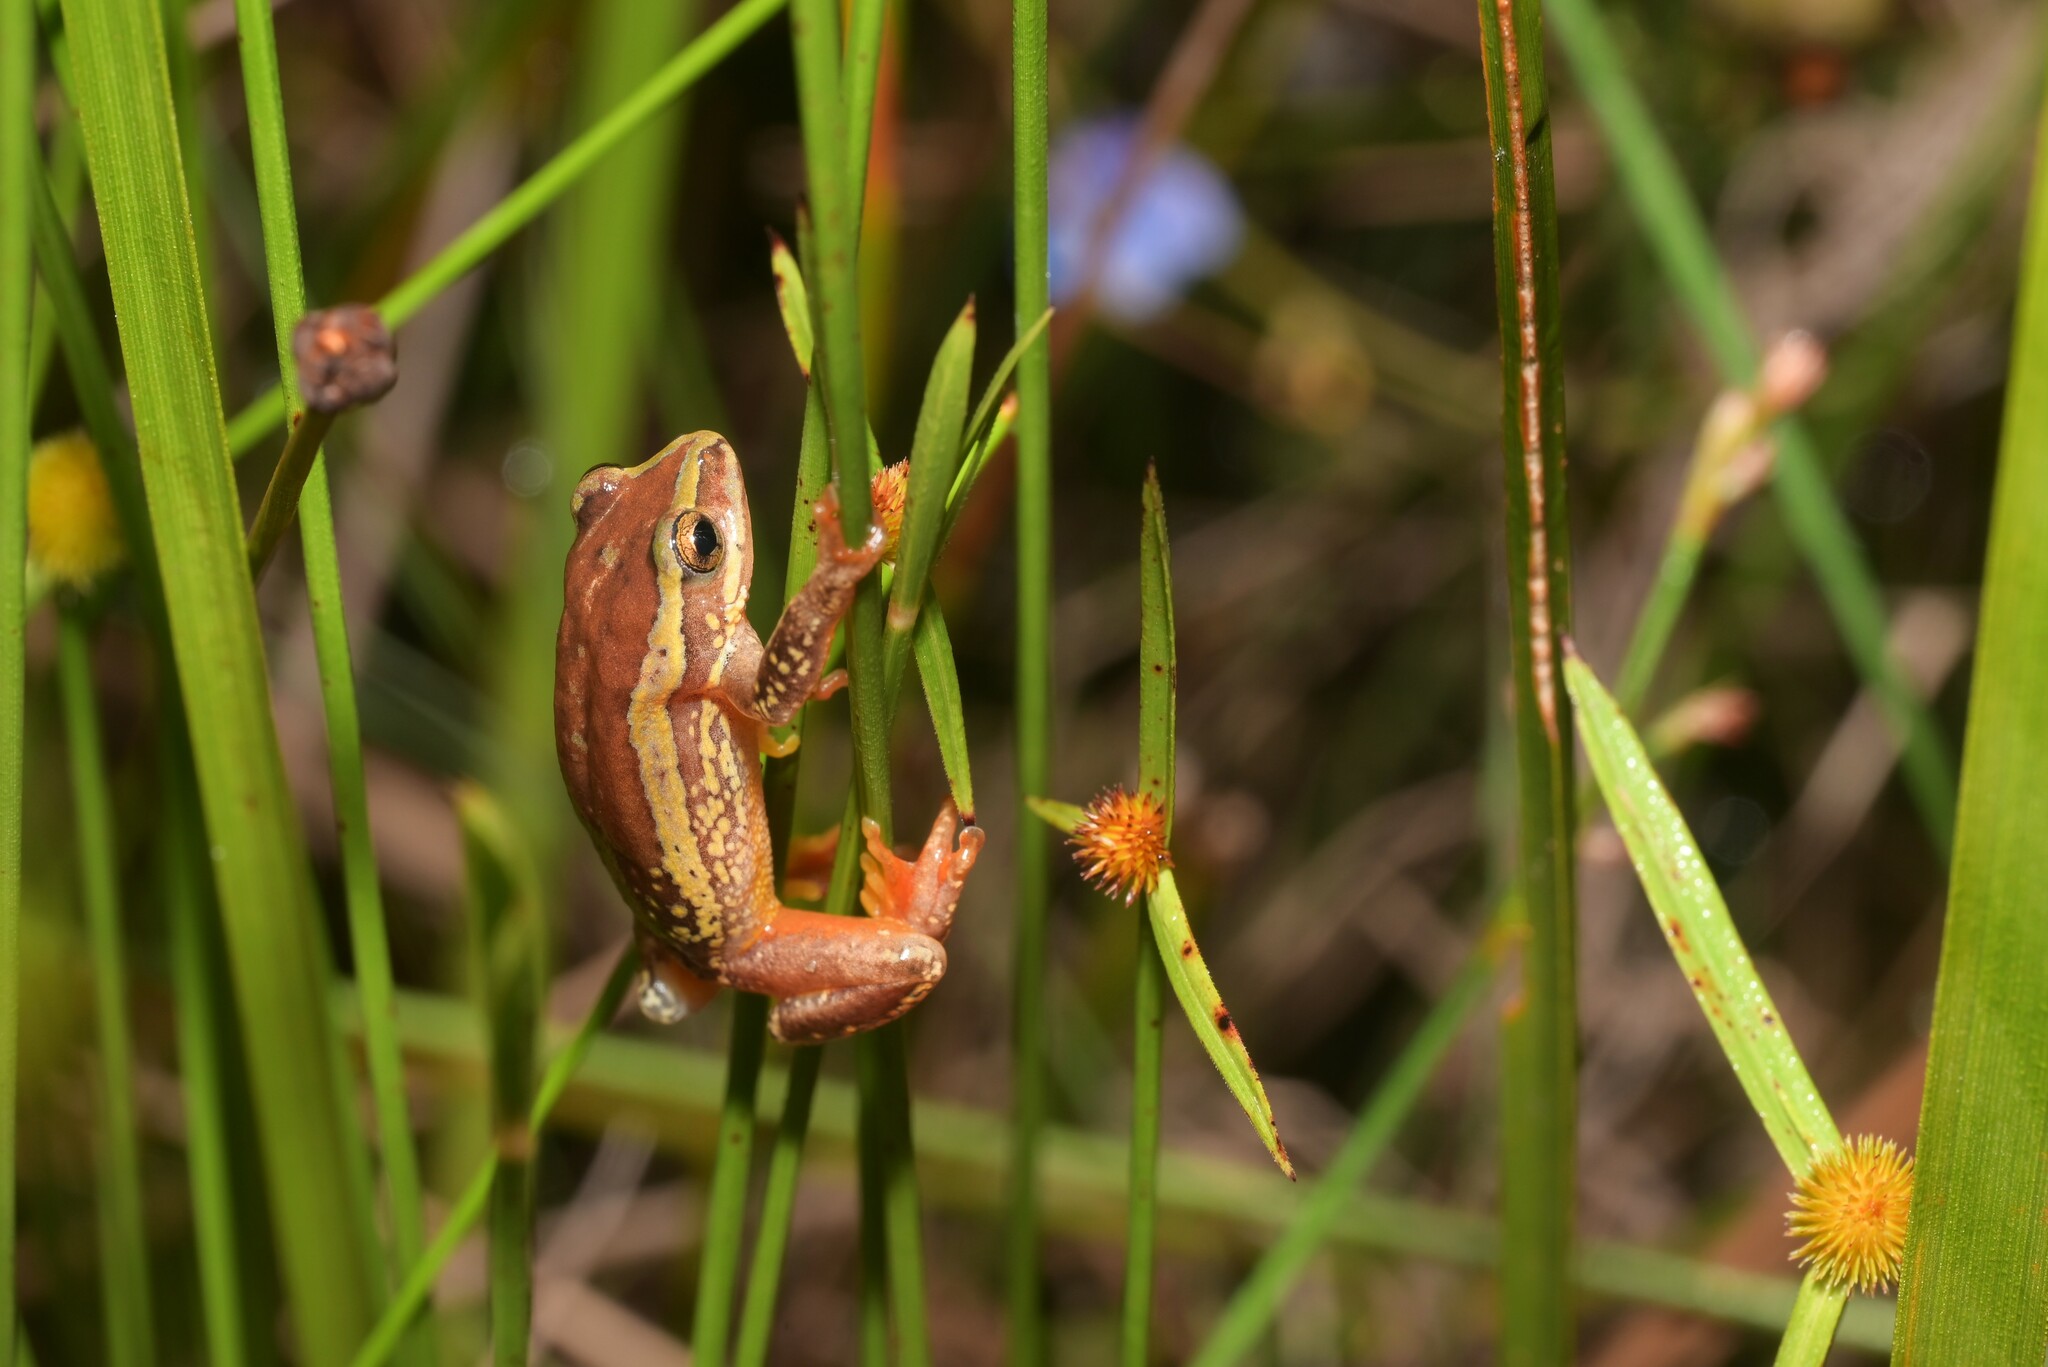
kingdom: Animalia
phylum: Chordata
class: Amphibia
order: Anura
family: Hyperoliidae
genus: Hyperolius
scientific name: Hyperolius pictus
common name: Variable reed frog
